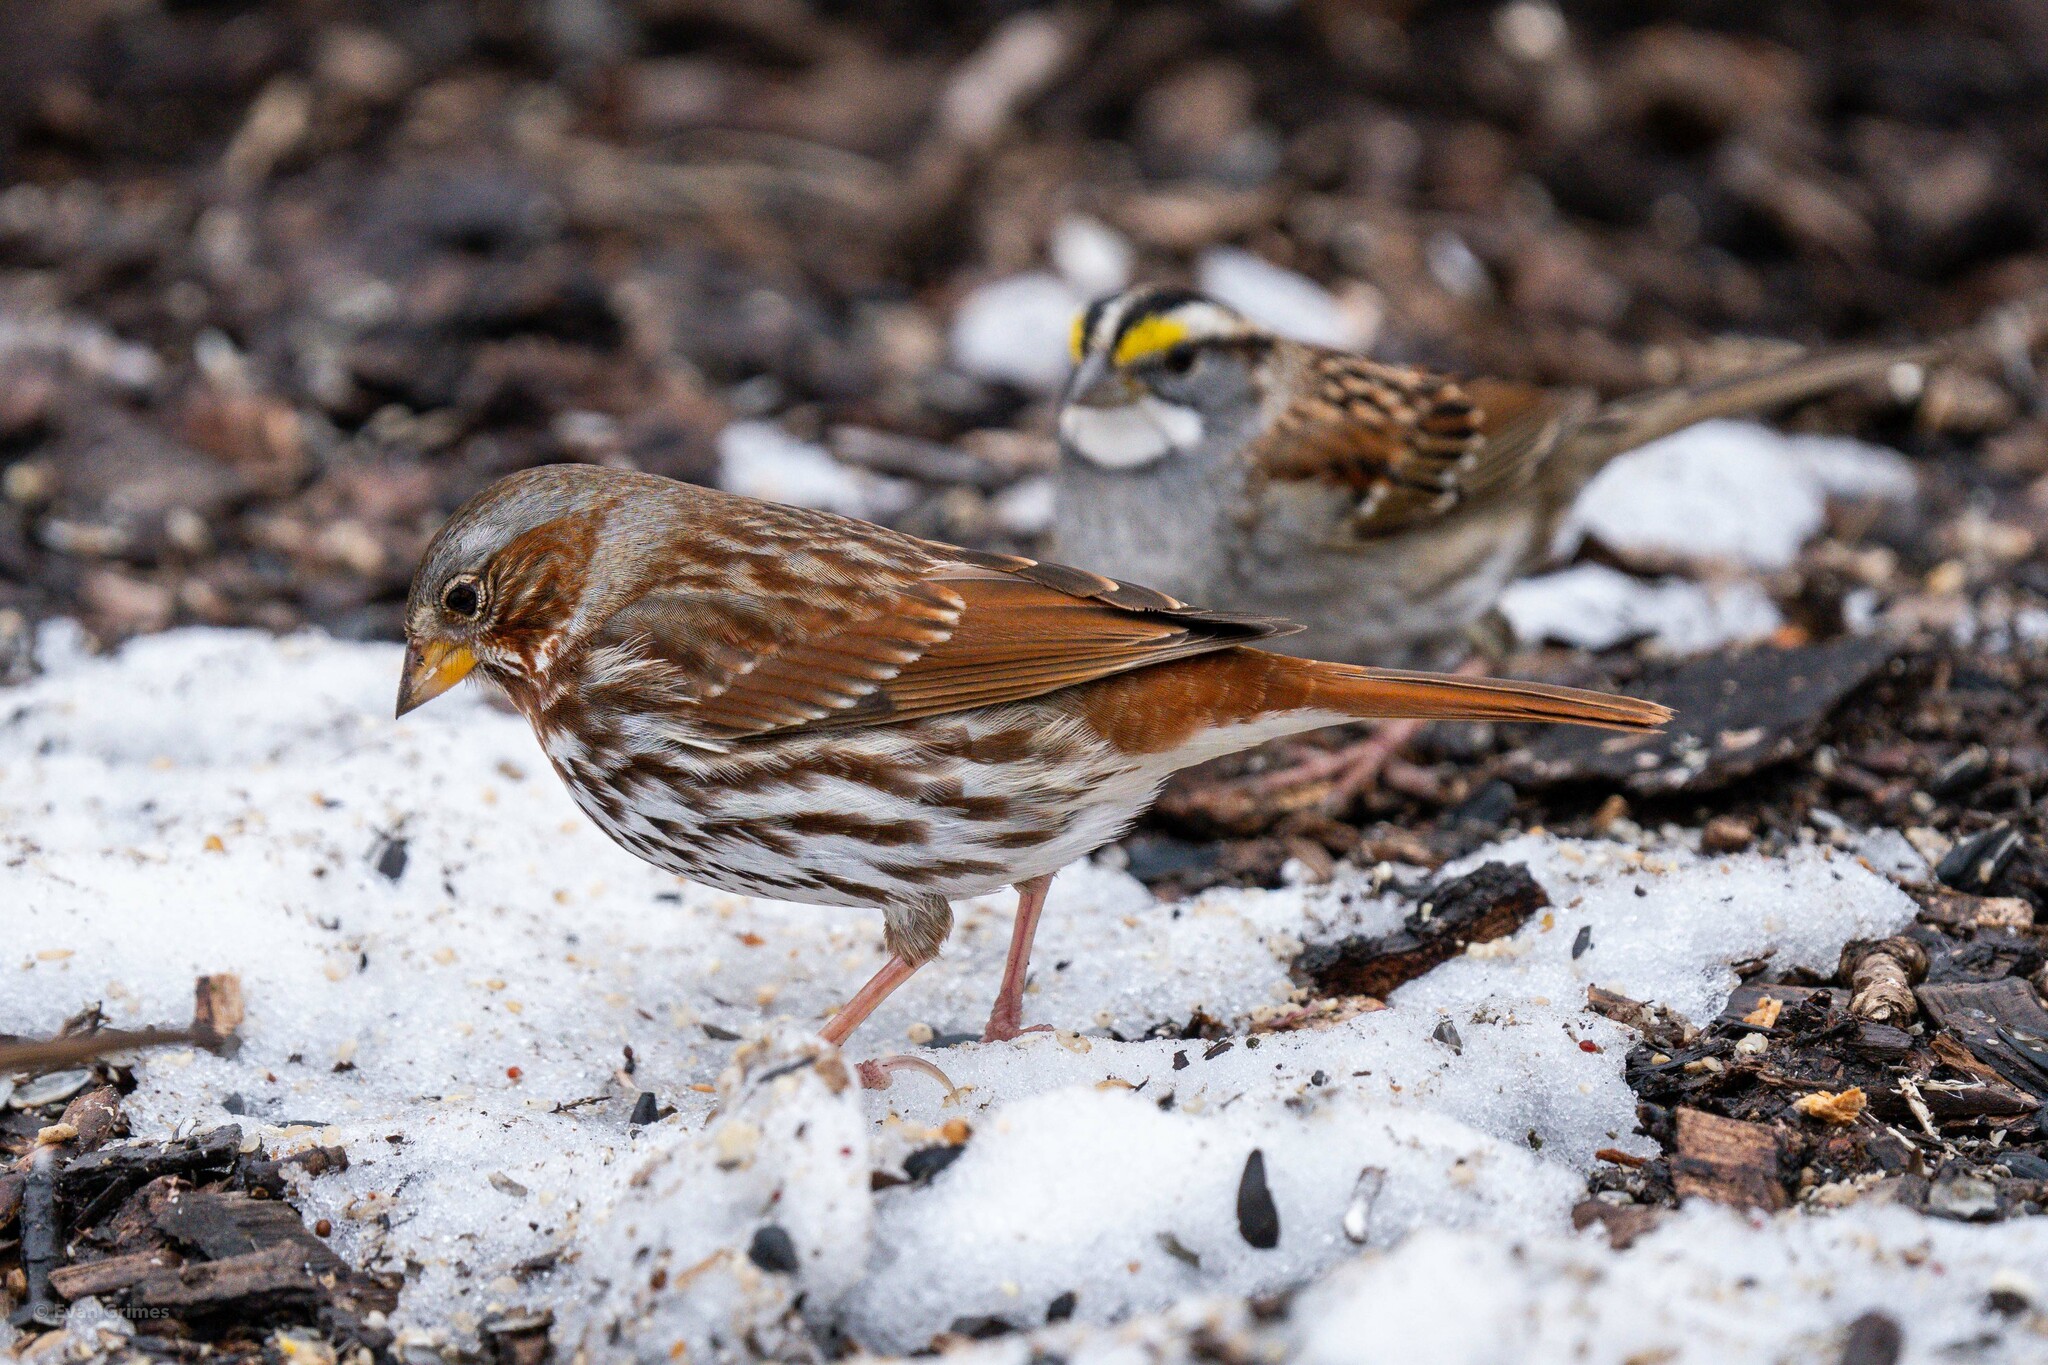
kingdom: Animalia
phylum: Chordata
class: Aves
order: Passeriformes
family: Passerellidae
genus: Passerella
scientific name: Passerella iliaca
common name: Fox sparrow
